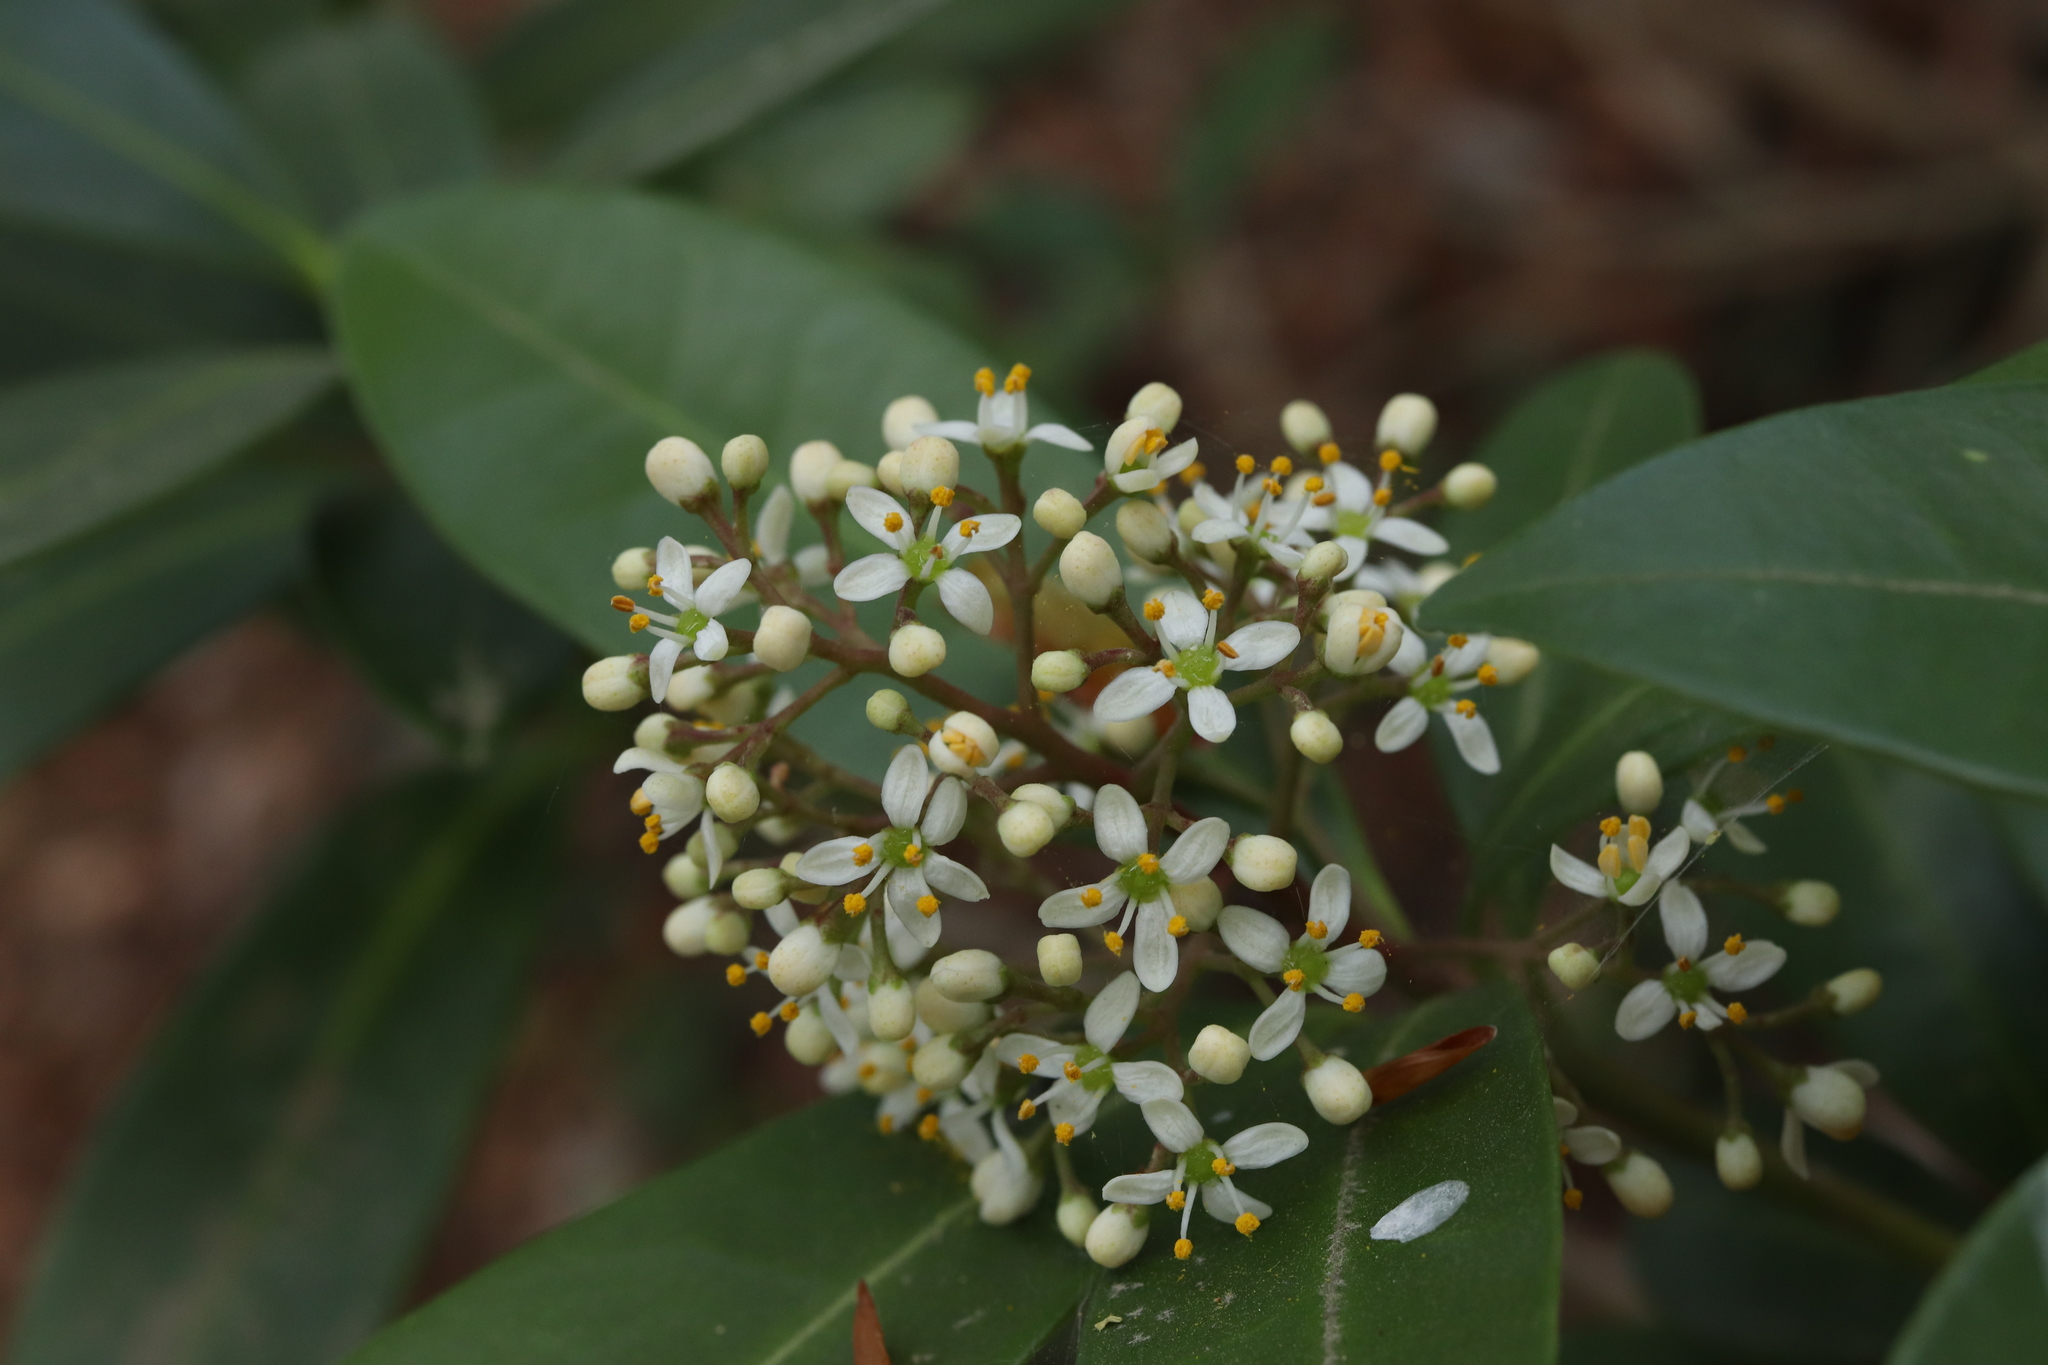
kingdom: Plantae
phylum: Tracheophyta
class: Magnoliopsida
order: Sapindales
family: Rutaceae
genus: Skimmia
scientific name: Skimmia japonica
